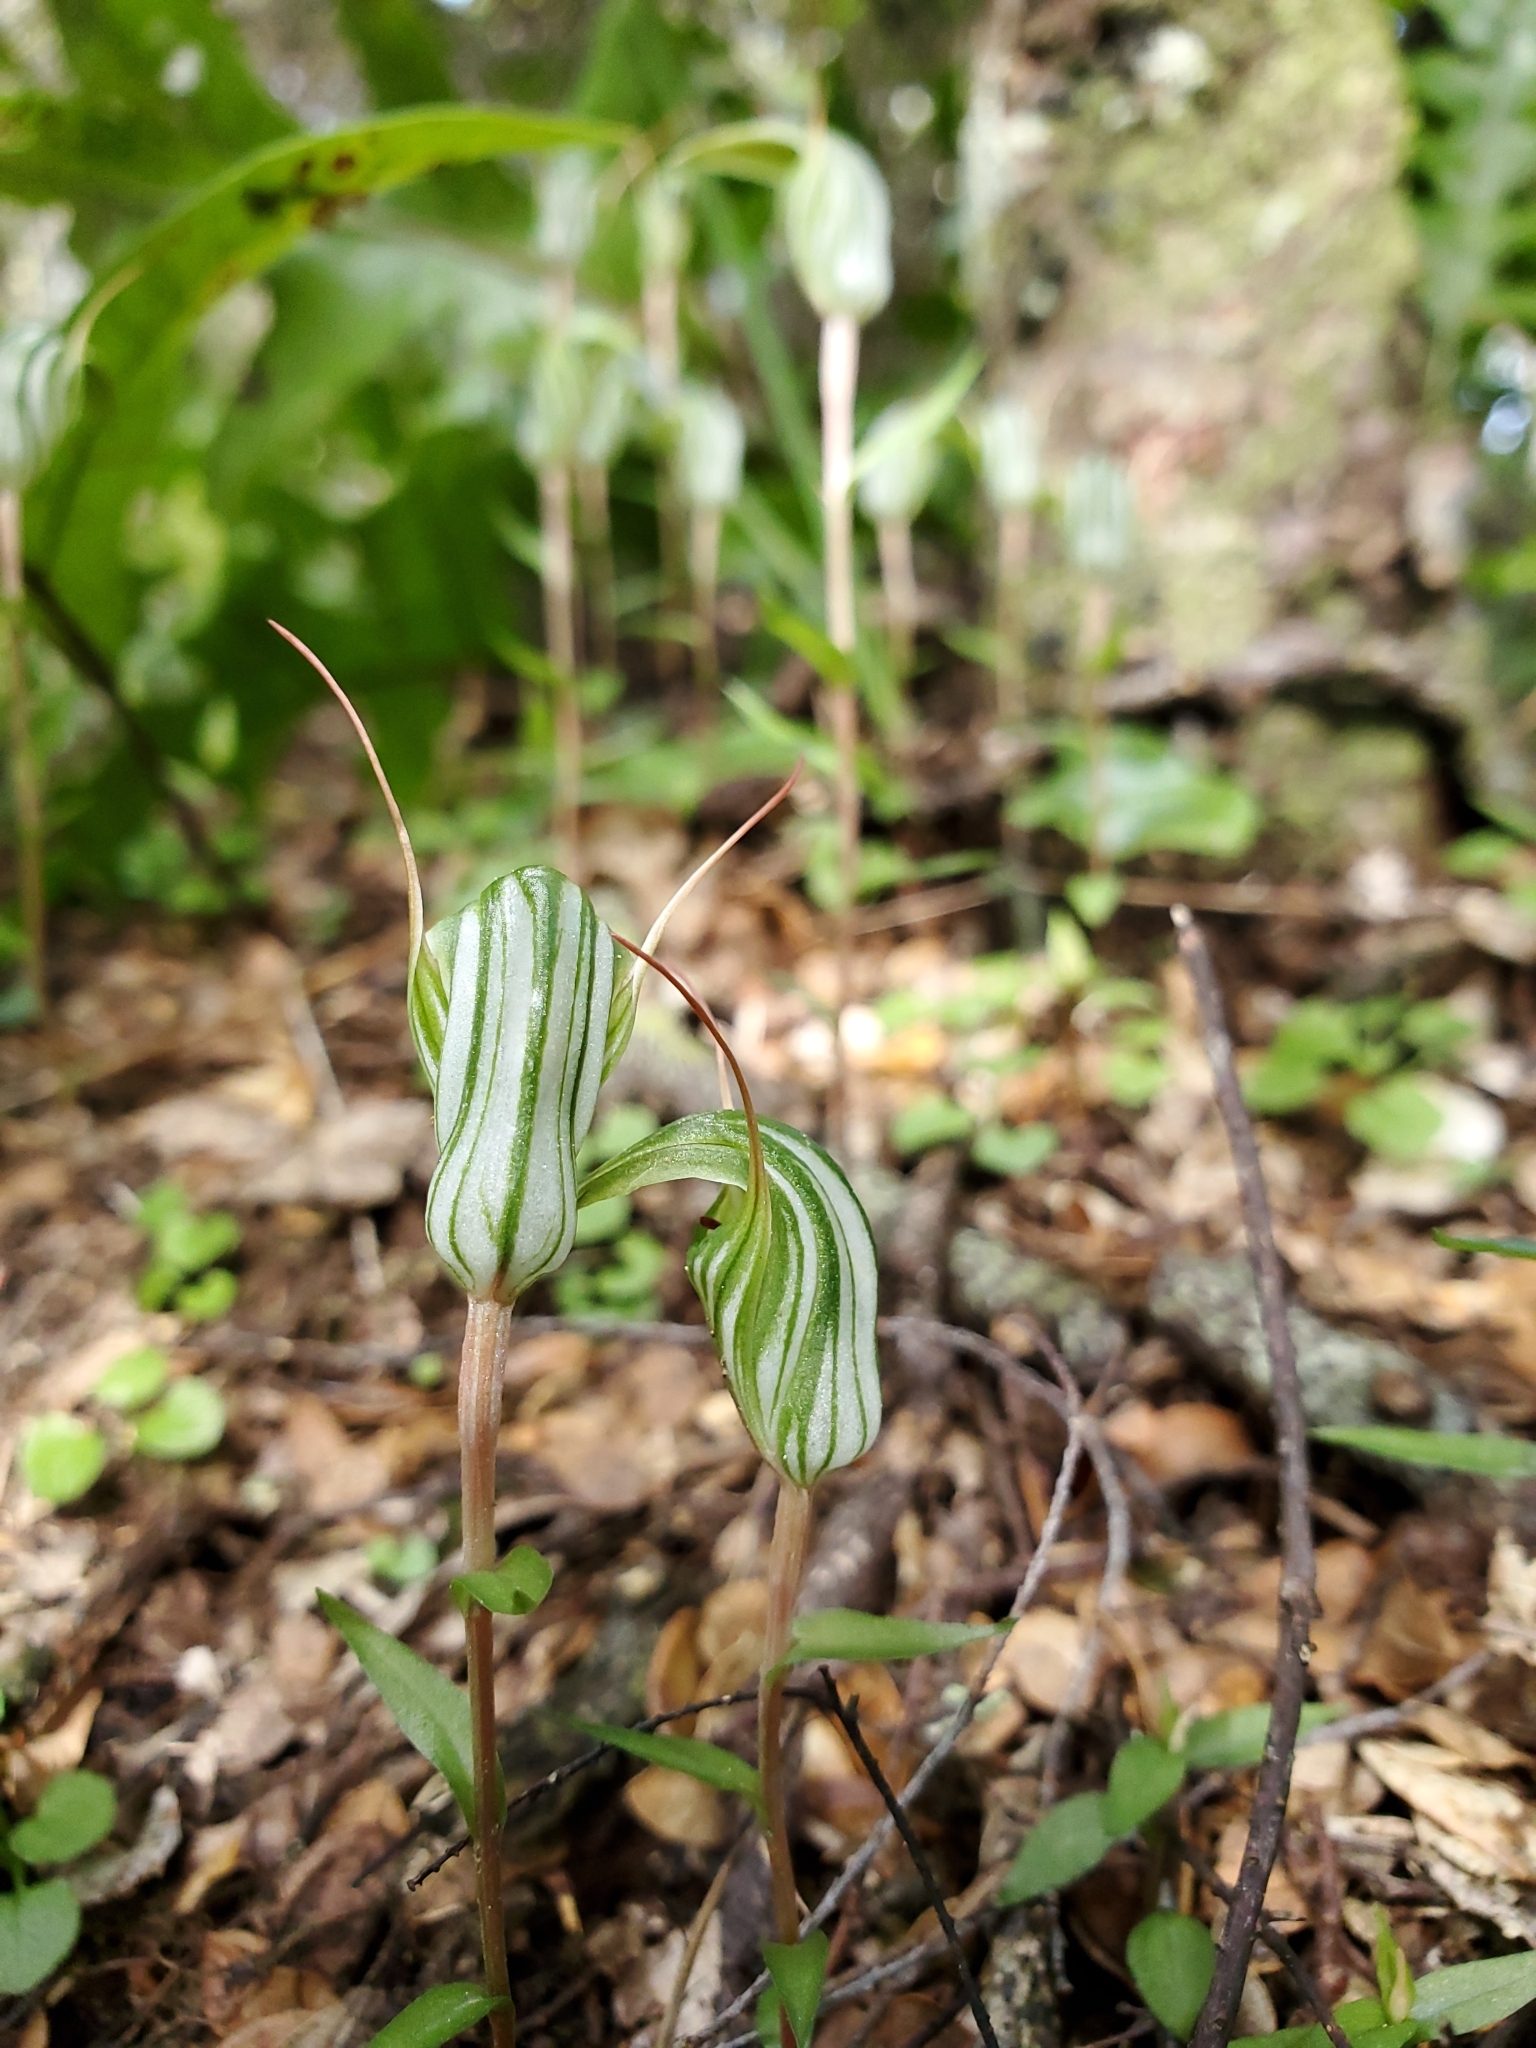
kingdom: Plantae
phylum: Tracheophyta
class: Liliopsida
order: Asparagales
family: Orchidaceae
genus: Pterostylis
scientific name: Pterostylis alobula
